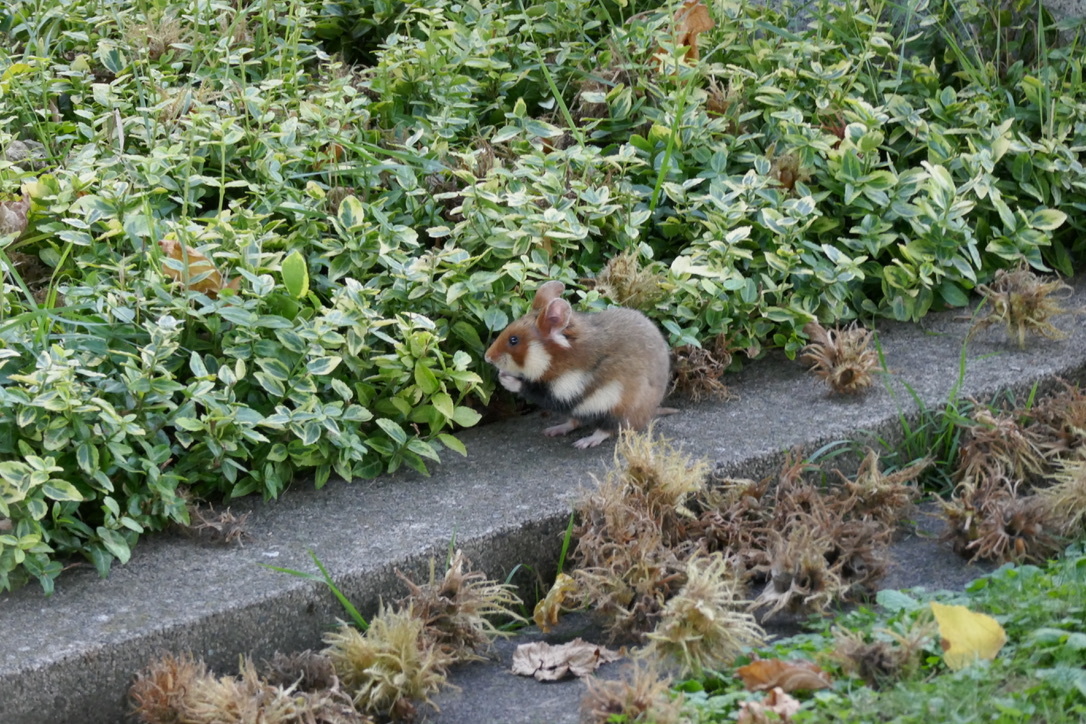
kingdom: Animalia
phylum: Chordata
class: Mammalia
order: Rodentia
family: Cricetidae
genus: Cricetus
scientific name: Cricetus cricetus
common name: Common hamster
